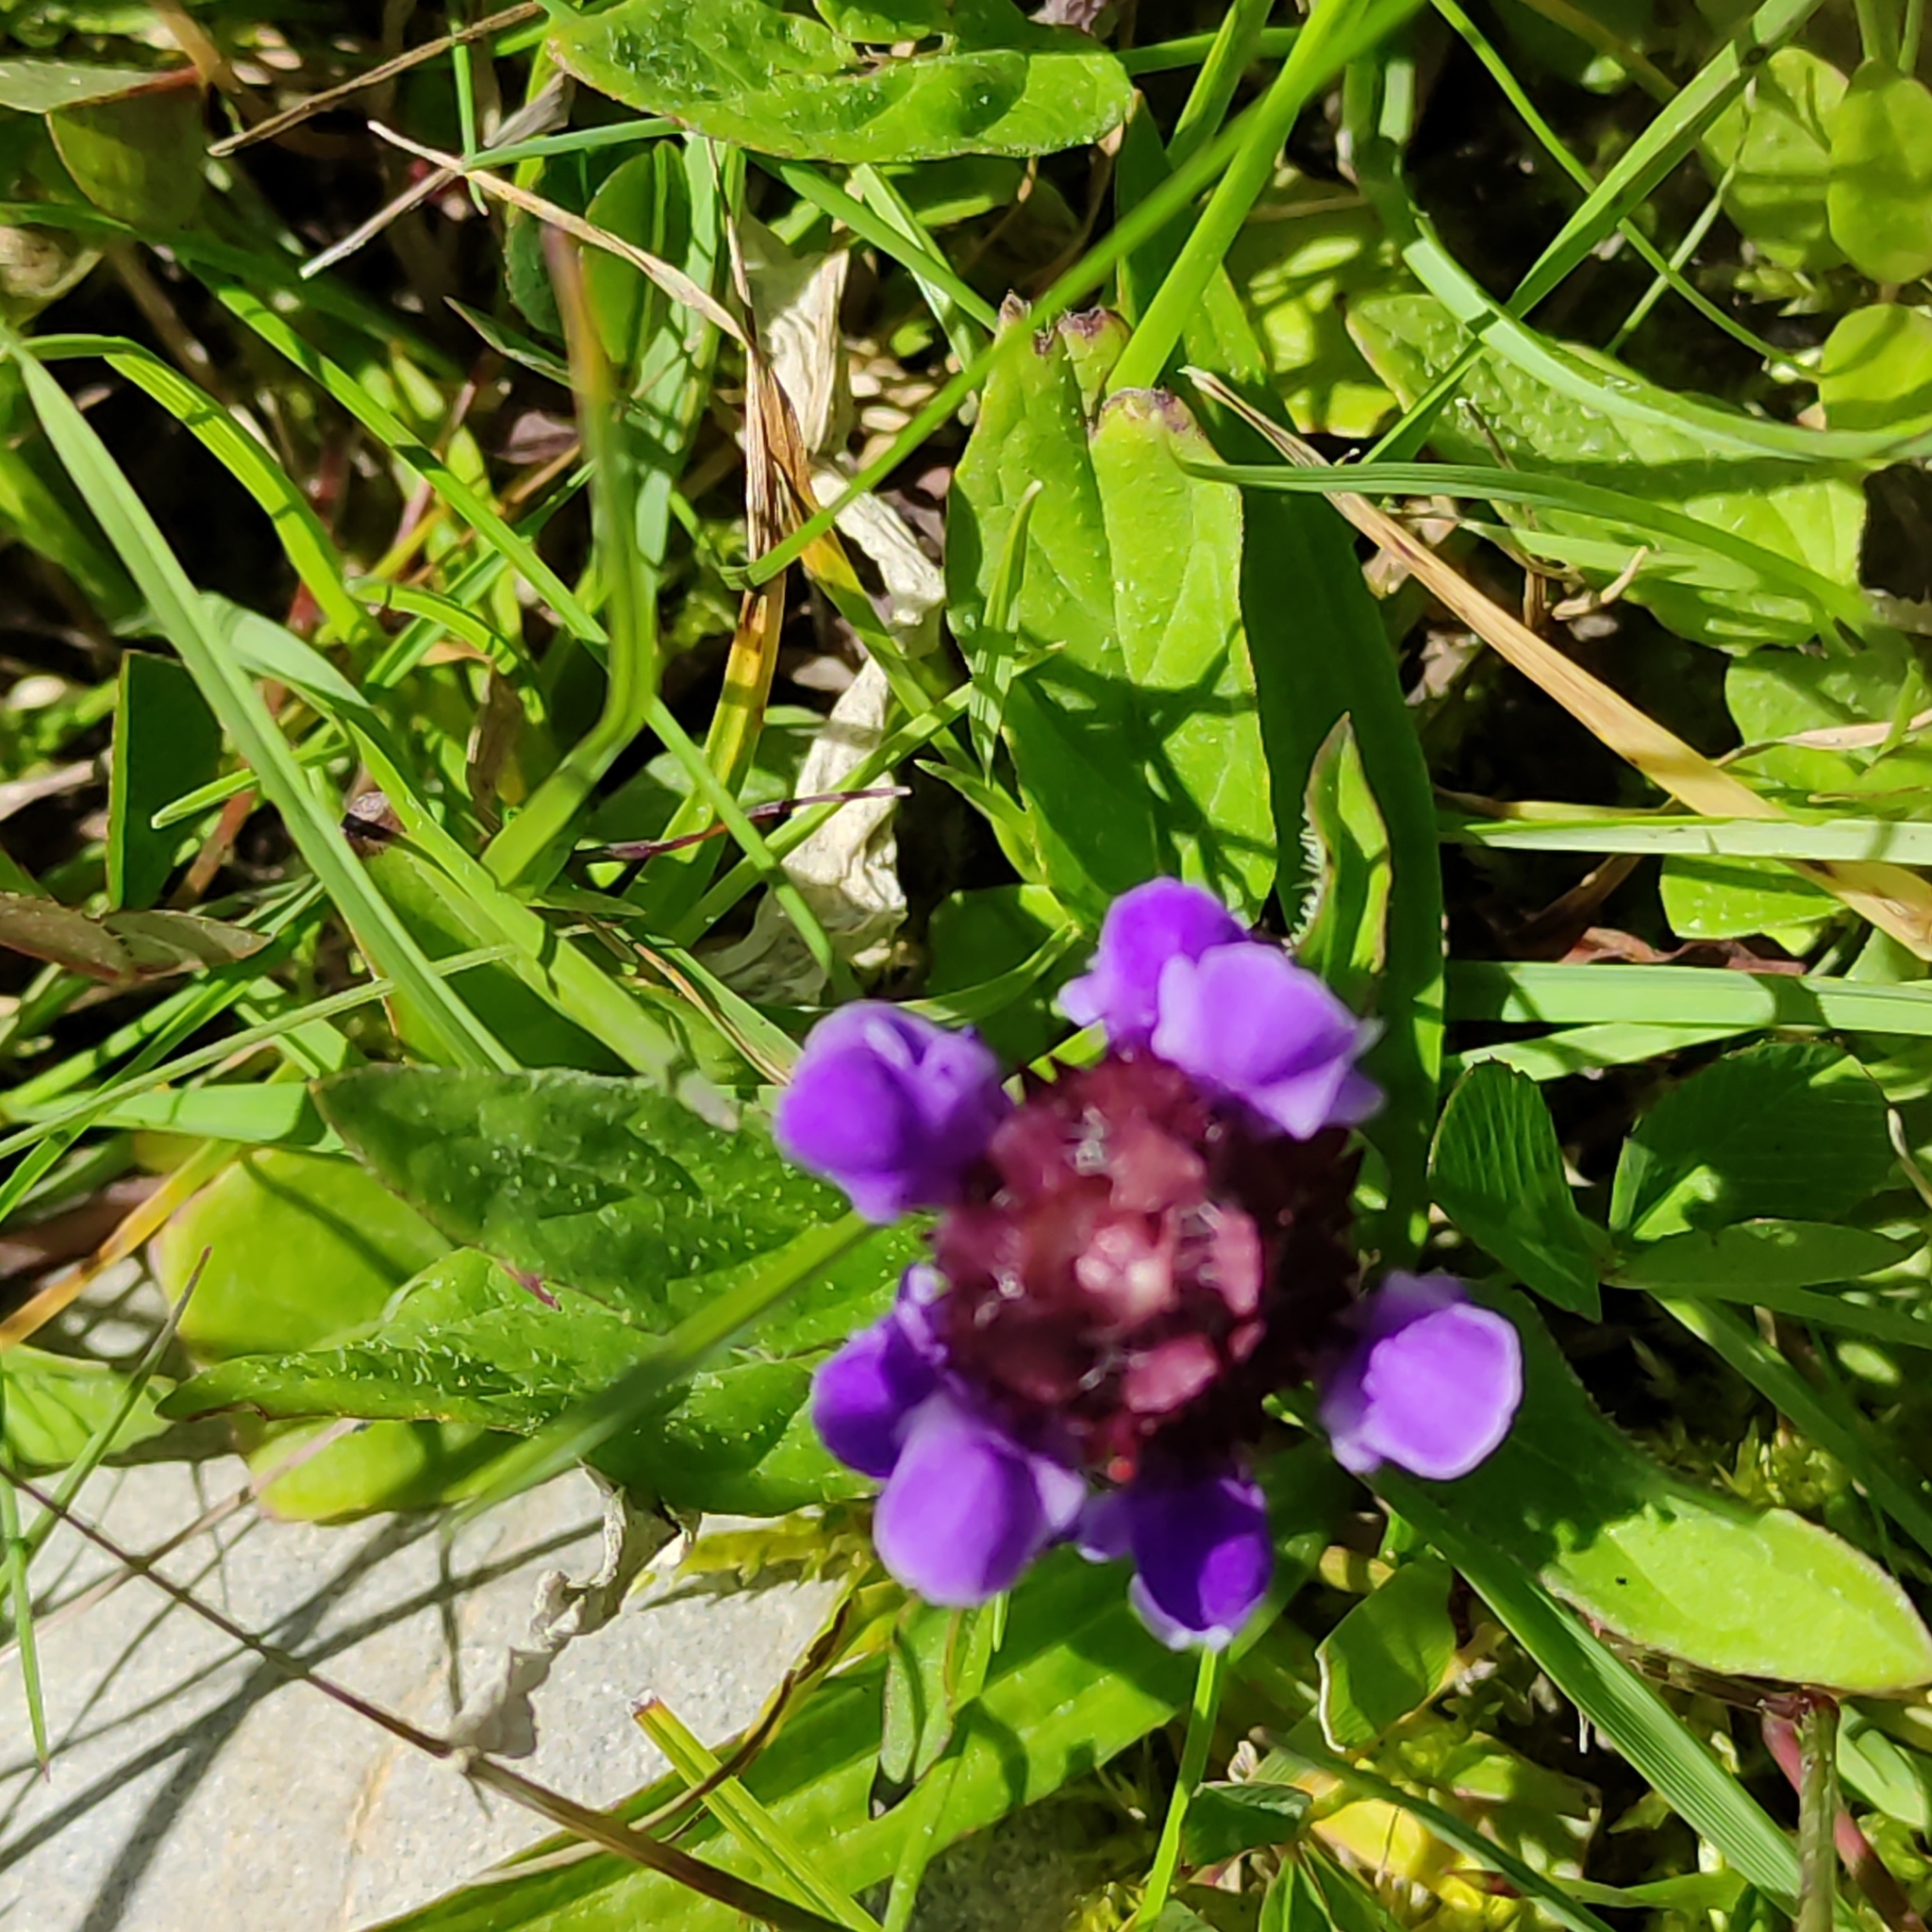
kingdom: Plantae
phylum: Tracheophyta
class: Magnoliopsida
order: Lamiales
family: Lamiaceae
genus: Prunella
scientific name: Prunella vulgaris
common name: Heal-all
